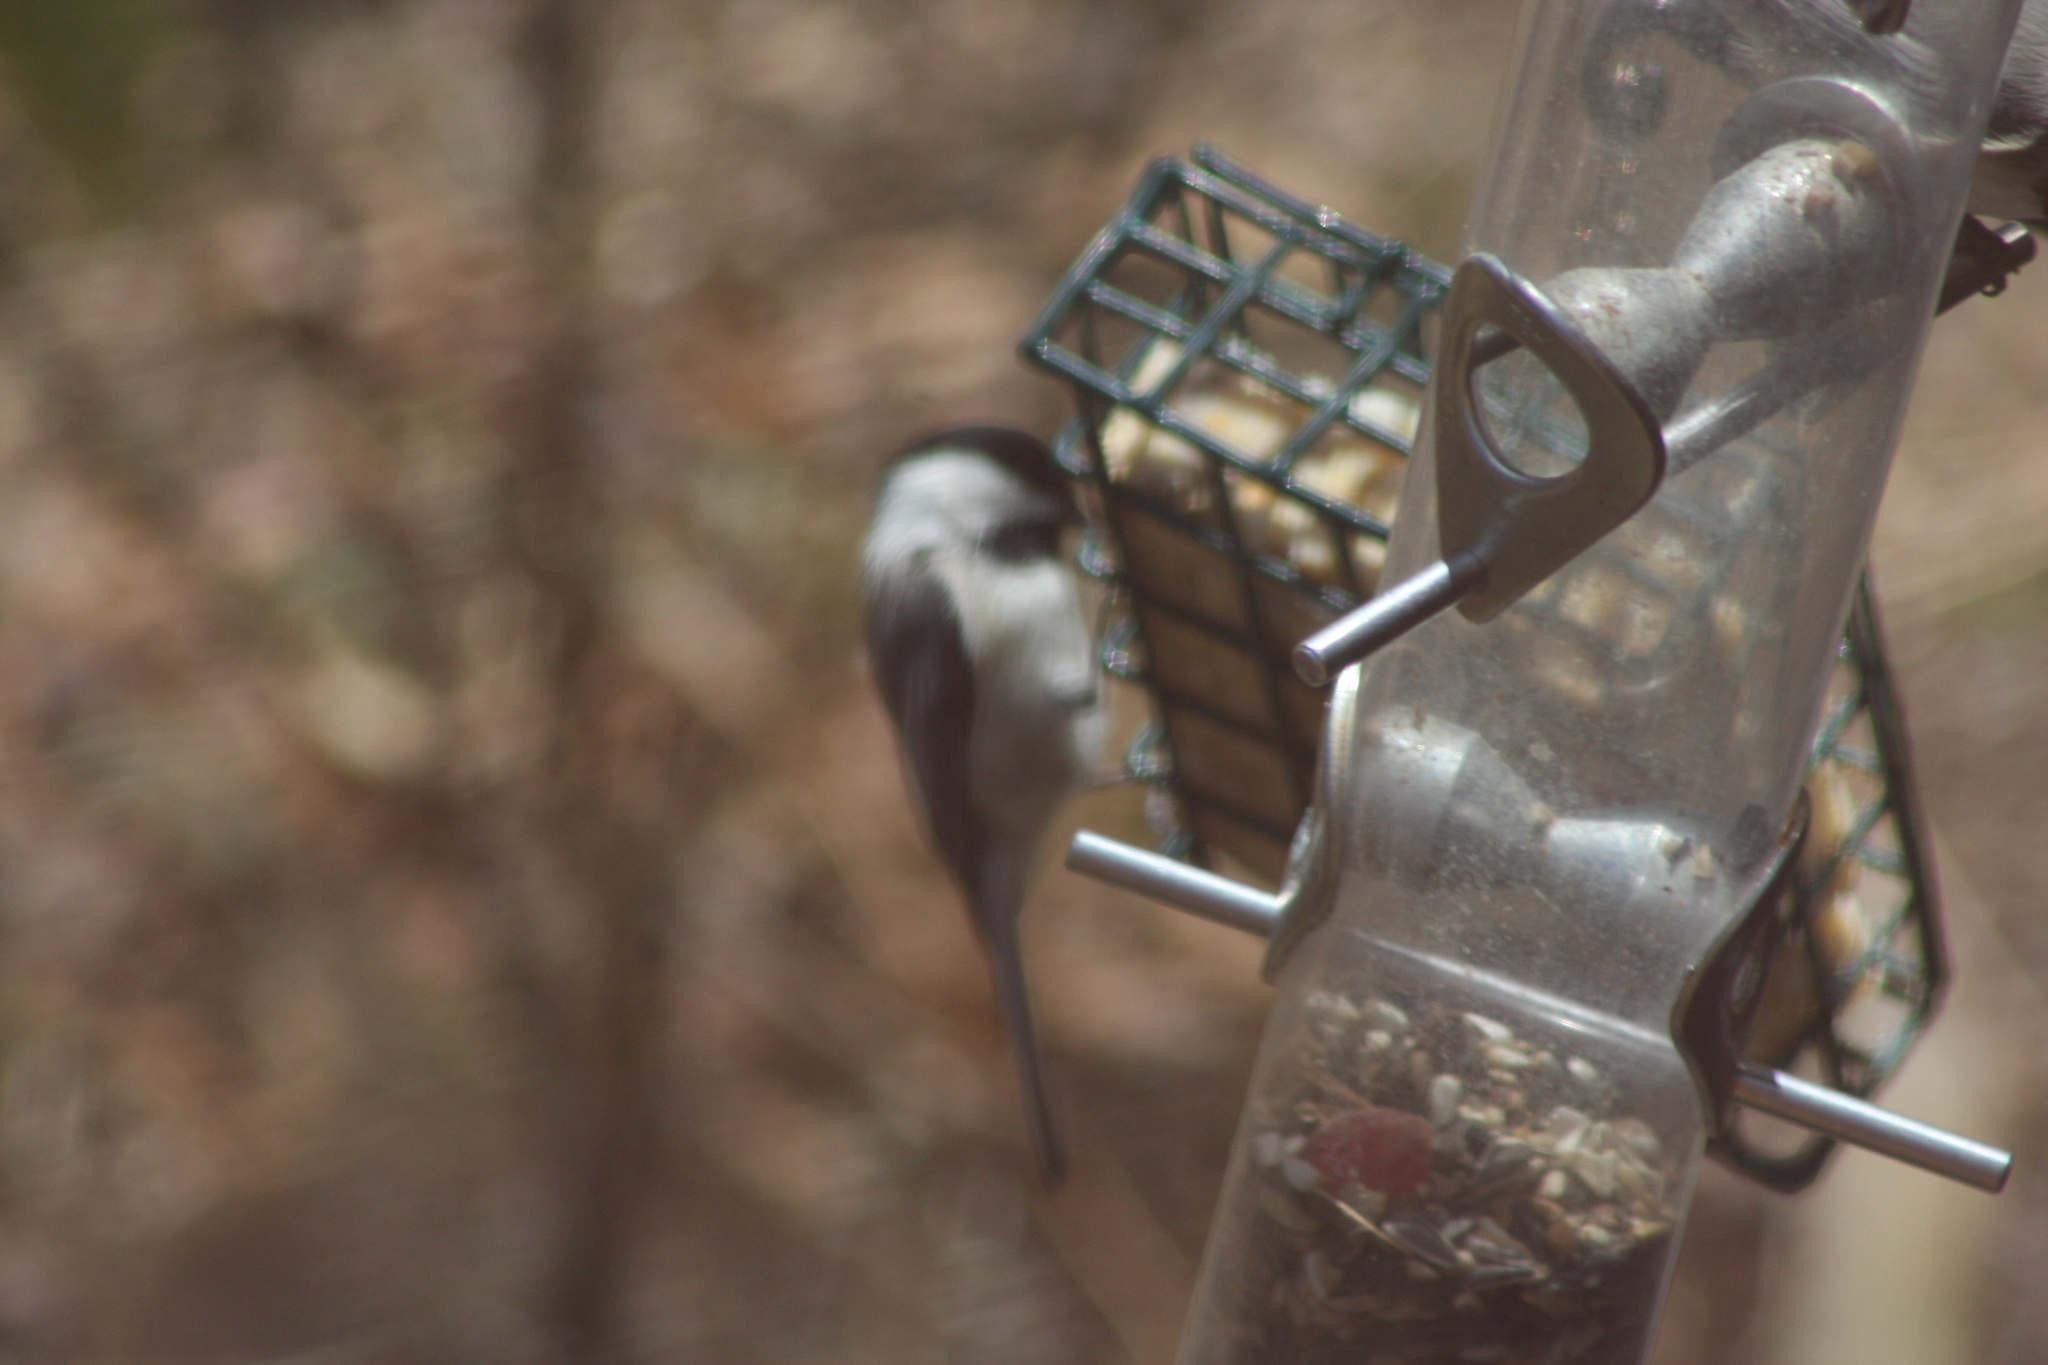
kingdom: Animalia
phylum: Chordata
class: Aves
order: Passeriformes
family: Paridae
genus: Poecile
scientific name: Poecile atricapillus
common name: Black-capped chickadee
